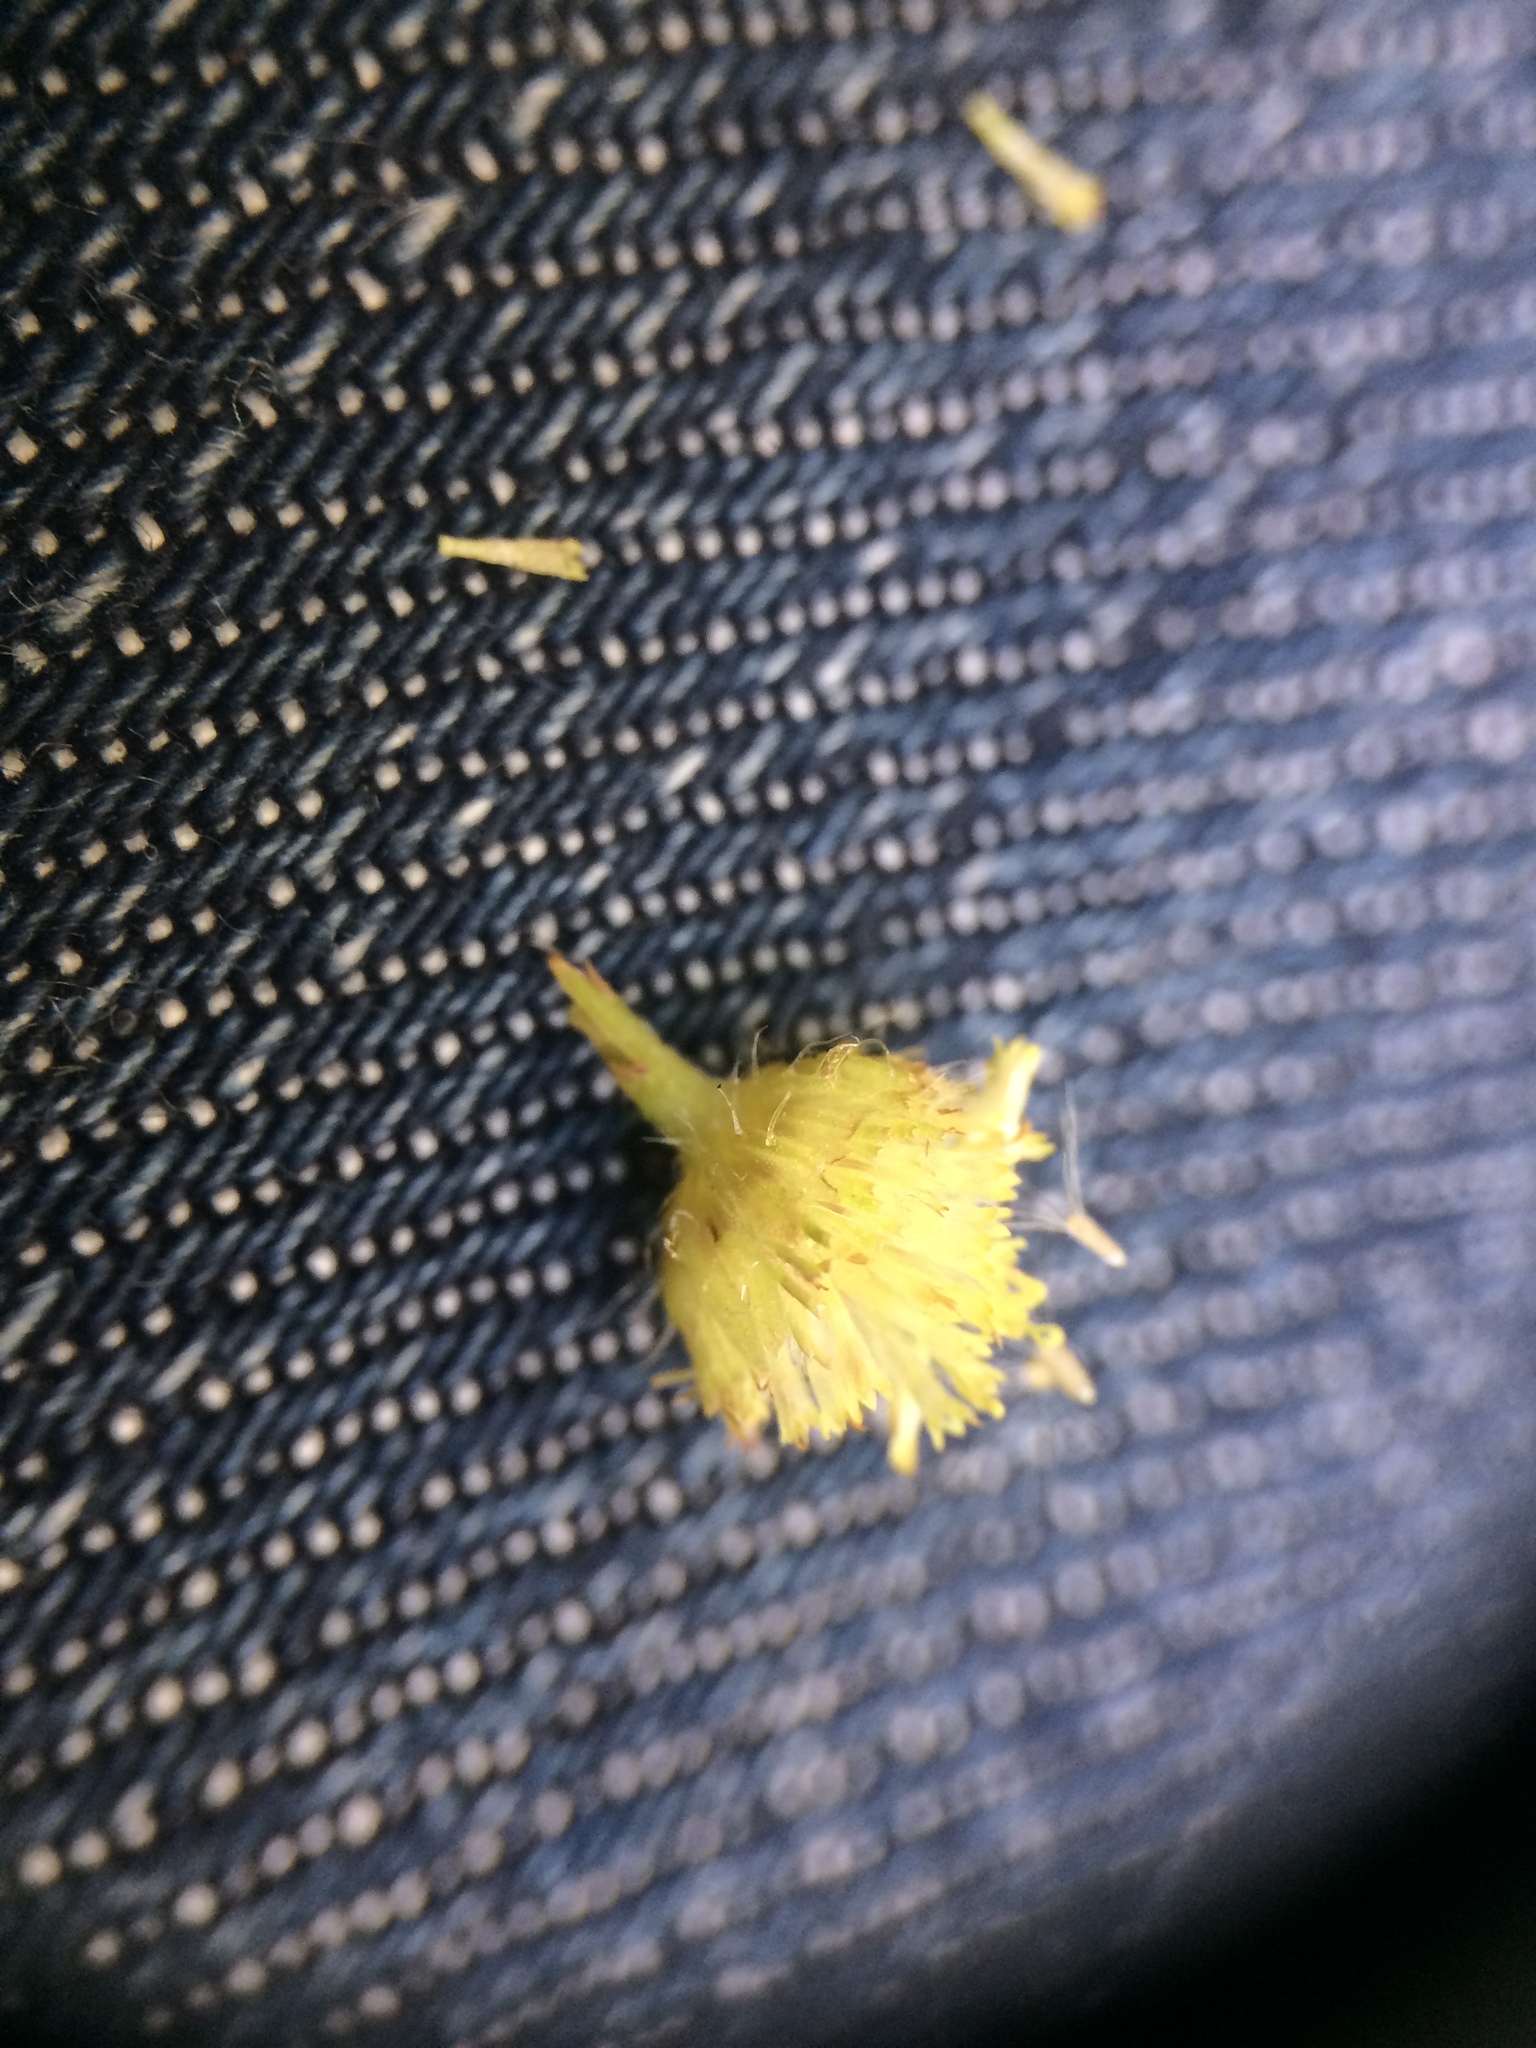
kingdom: Plantae
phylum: Tracheophyta
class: Magnoliopsida
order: Asterales
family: Asteraceae
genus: Erigeron
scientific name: Erigeron annuus
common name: Tall fleabane
